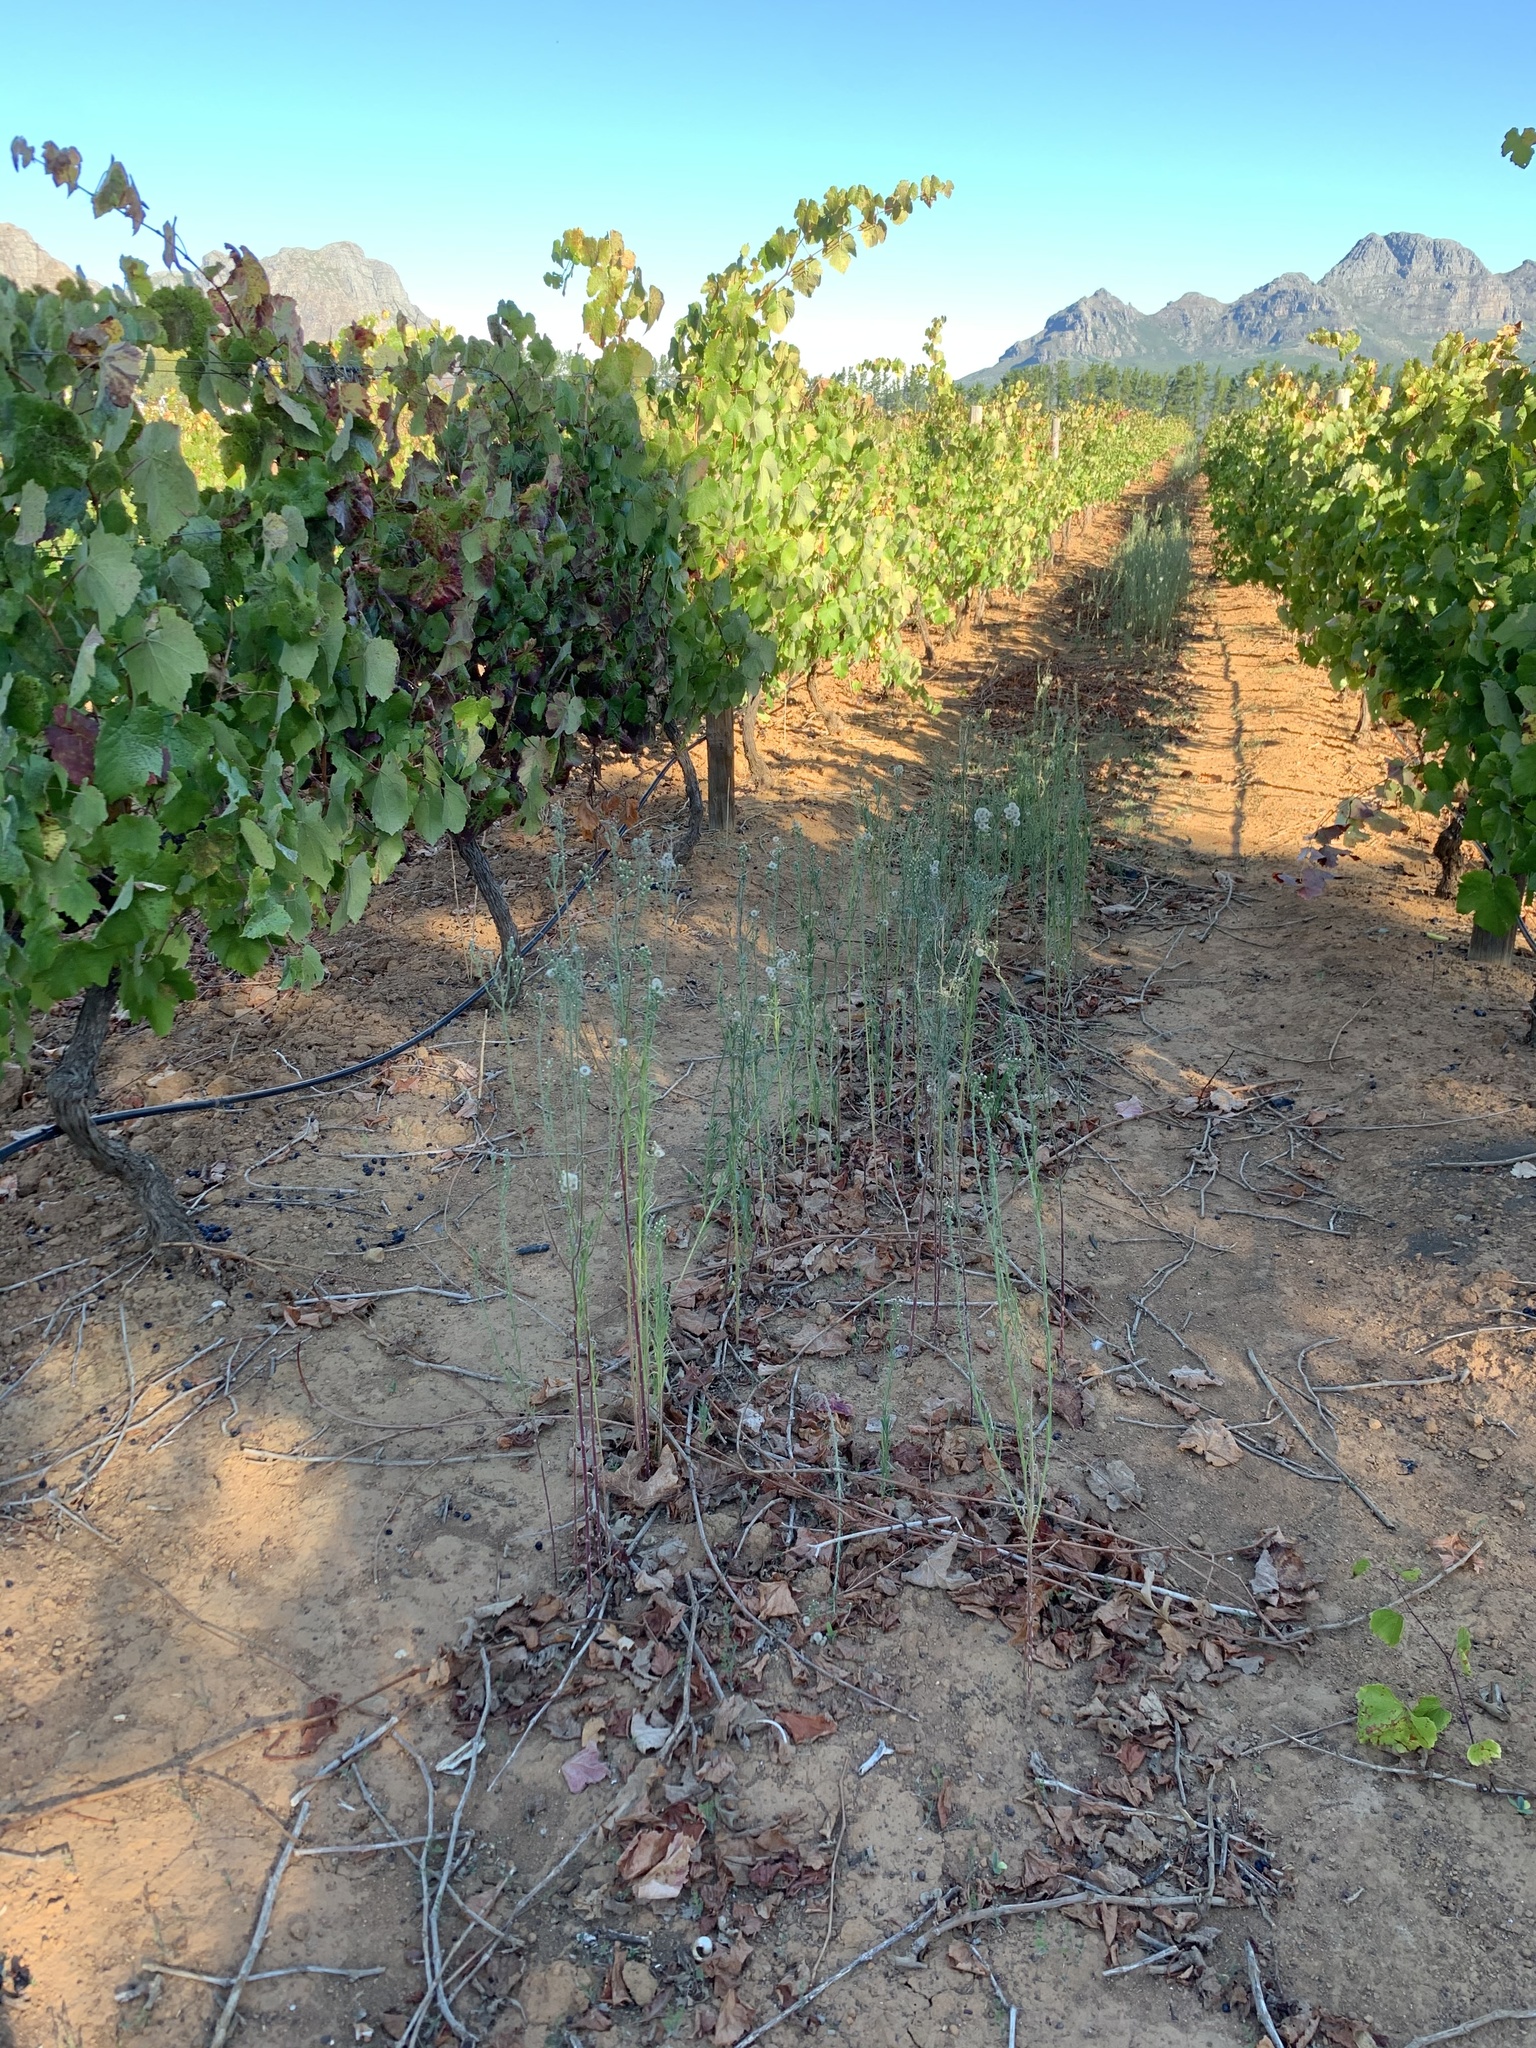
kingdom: Plantae
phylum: Tracheophyta
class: Magnoliopsida
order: Asterales
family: Asteraceae
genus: Erigeron
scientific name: Erigeron bonariensis
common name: Argentine fleabane
